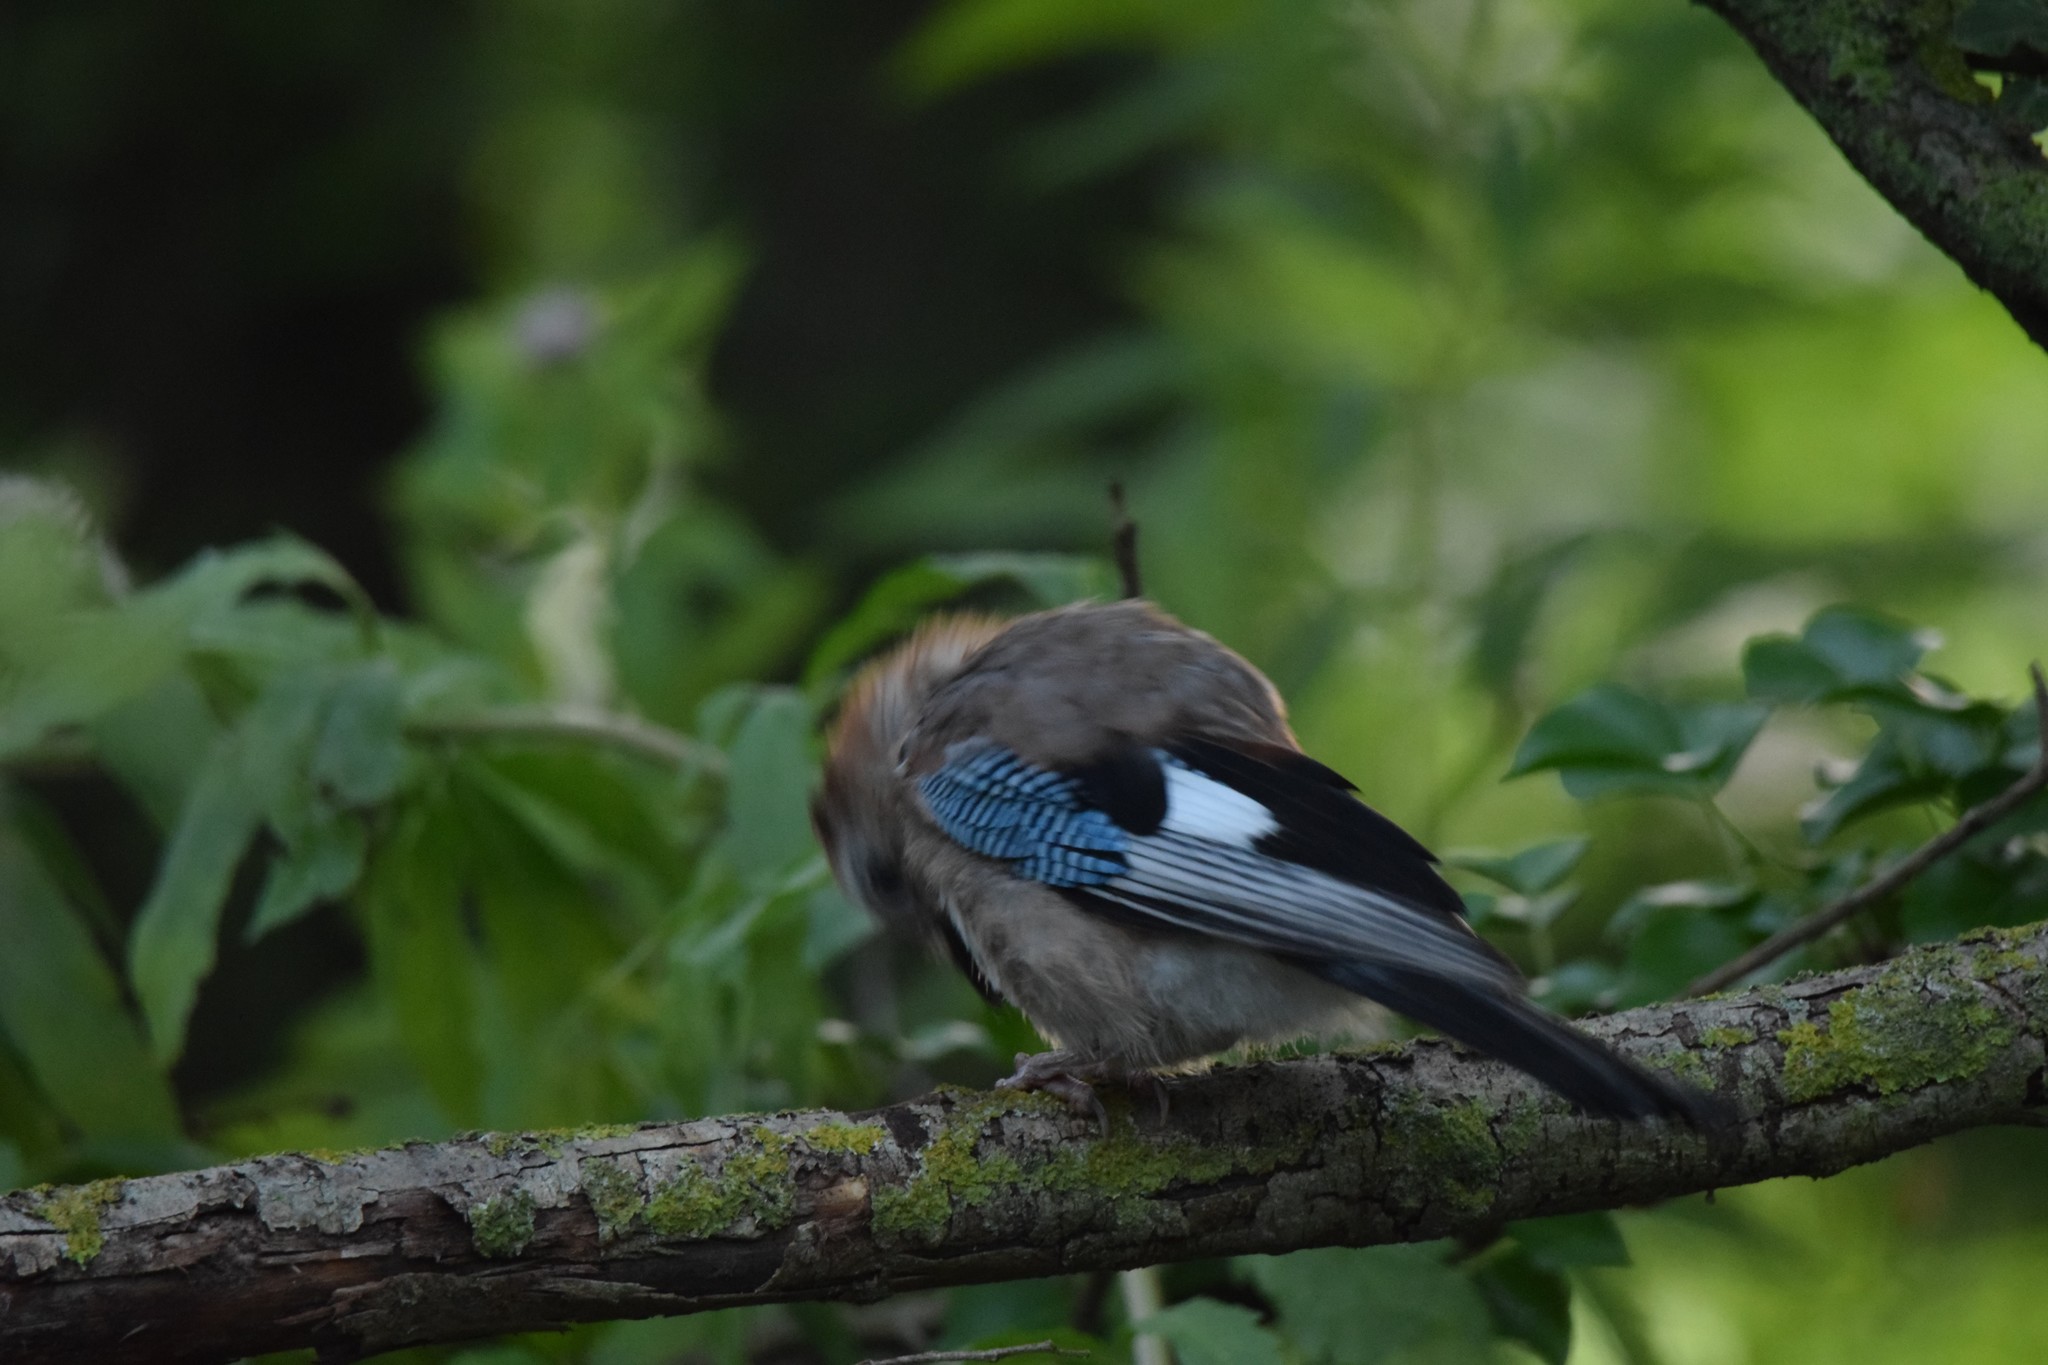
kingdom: Animalia
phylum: Chordata
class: Aves
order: Passeriformes
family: Corvidae
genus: Garrulus
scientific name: Garrulus glandarius
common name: Eurasian jay
